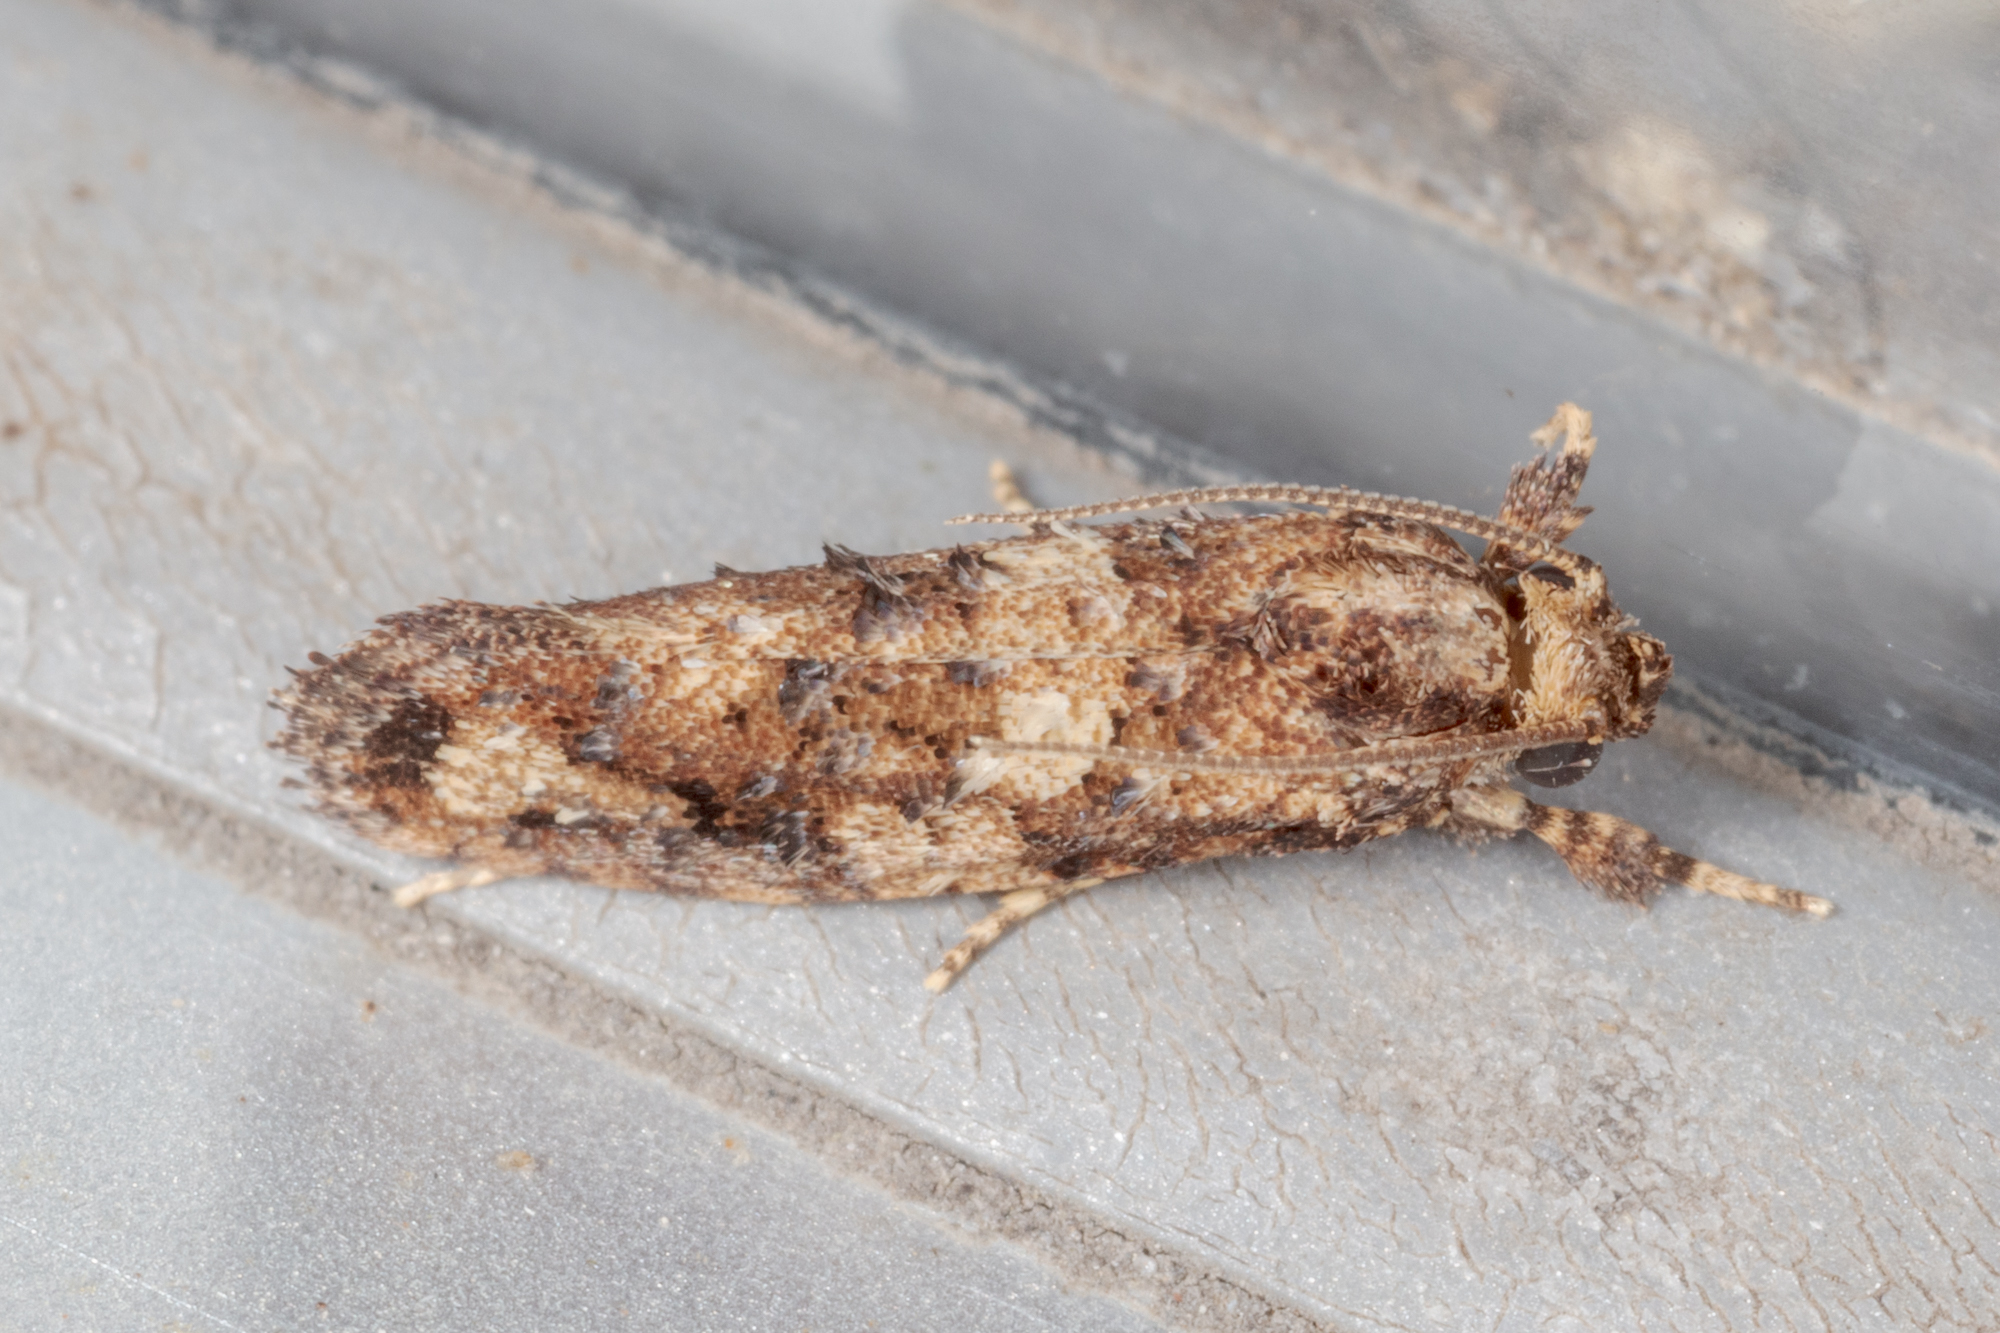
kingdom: Animalia
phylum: Arthropoda
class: Insecta
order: Lepidoptera
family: Tineidae
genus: Acrolophus
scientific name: Acrolophus cressoni
